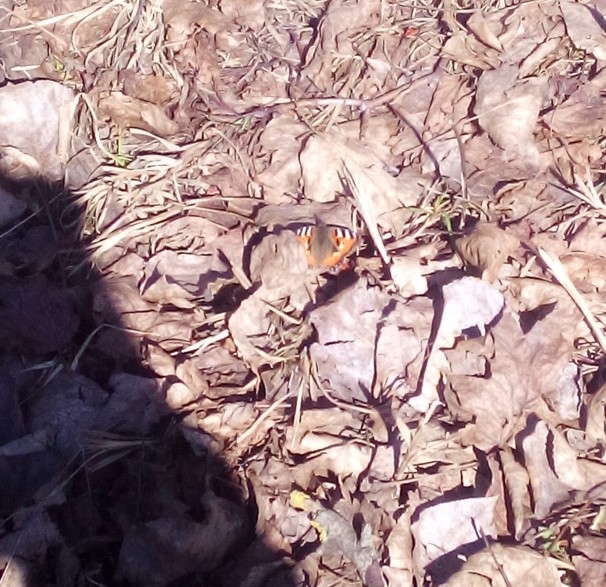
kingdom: Animalia
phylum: Arthropoda
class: Insecta
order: Lepidoptera
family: Nymphalidae
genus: Aglais
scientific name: Aglais urticae
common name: Small tortoiseshell
